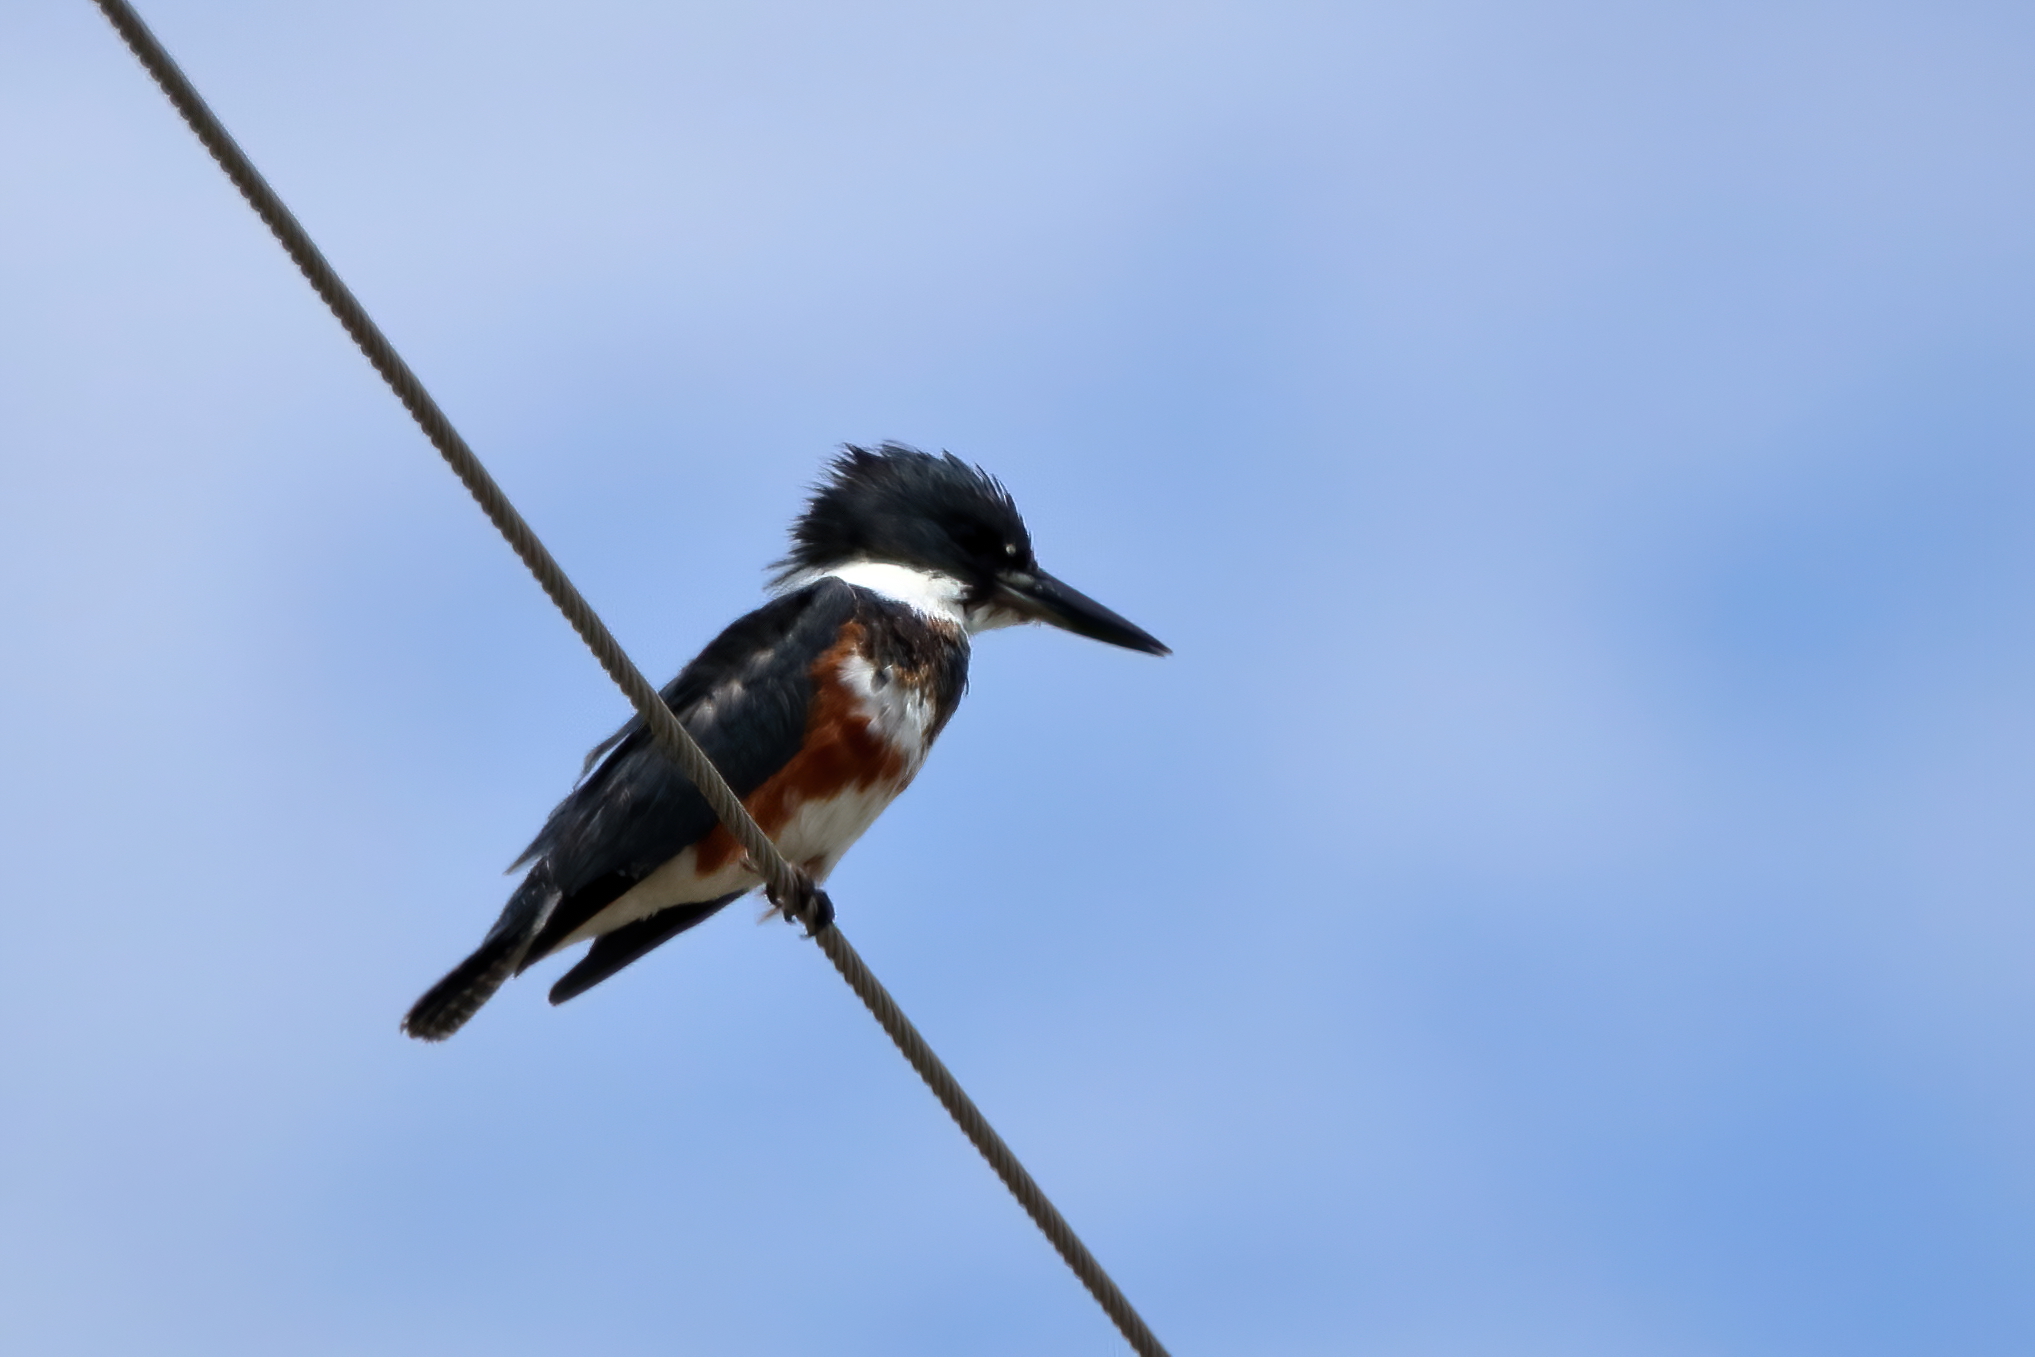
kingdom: Animalia
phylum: Chordata
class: Aves
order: Coraciiformes
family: Alcedinidae
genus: Megaceryle
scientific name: Megaceryle alcyon
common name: Belted kingfisher
